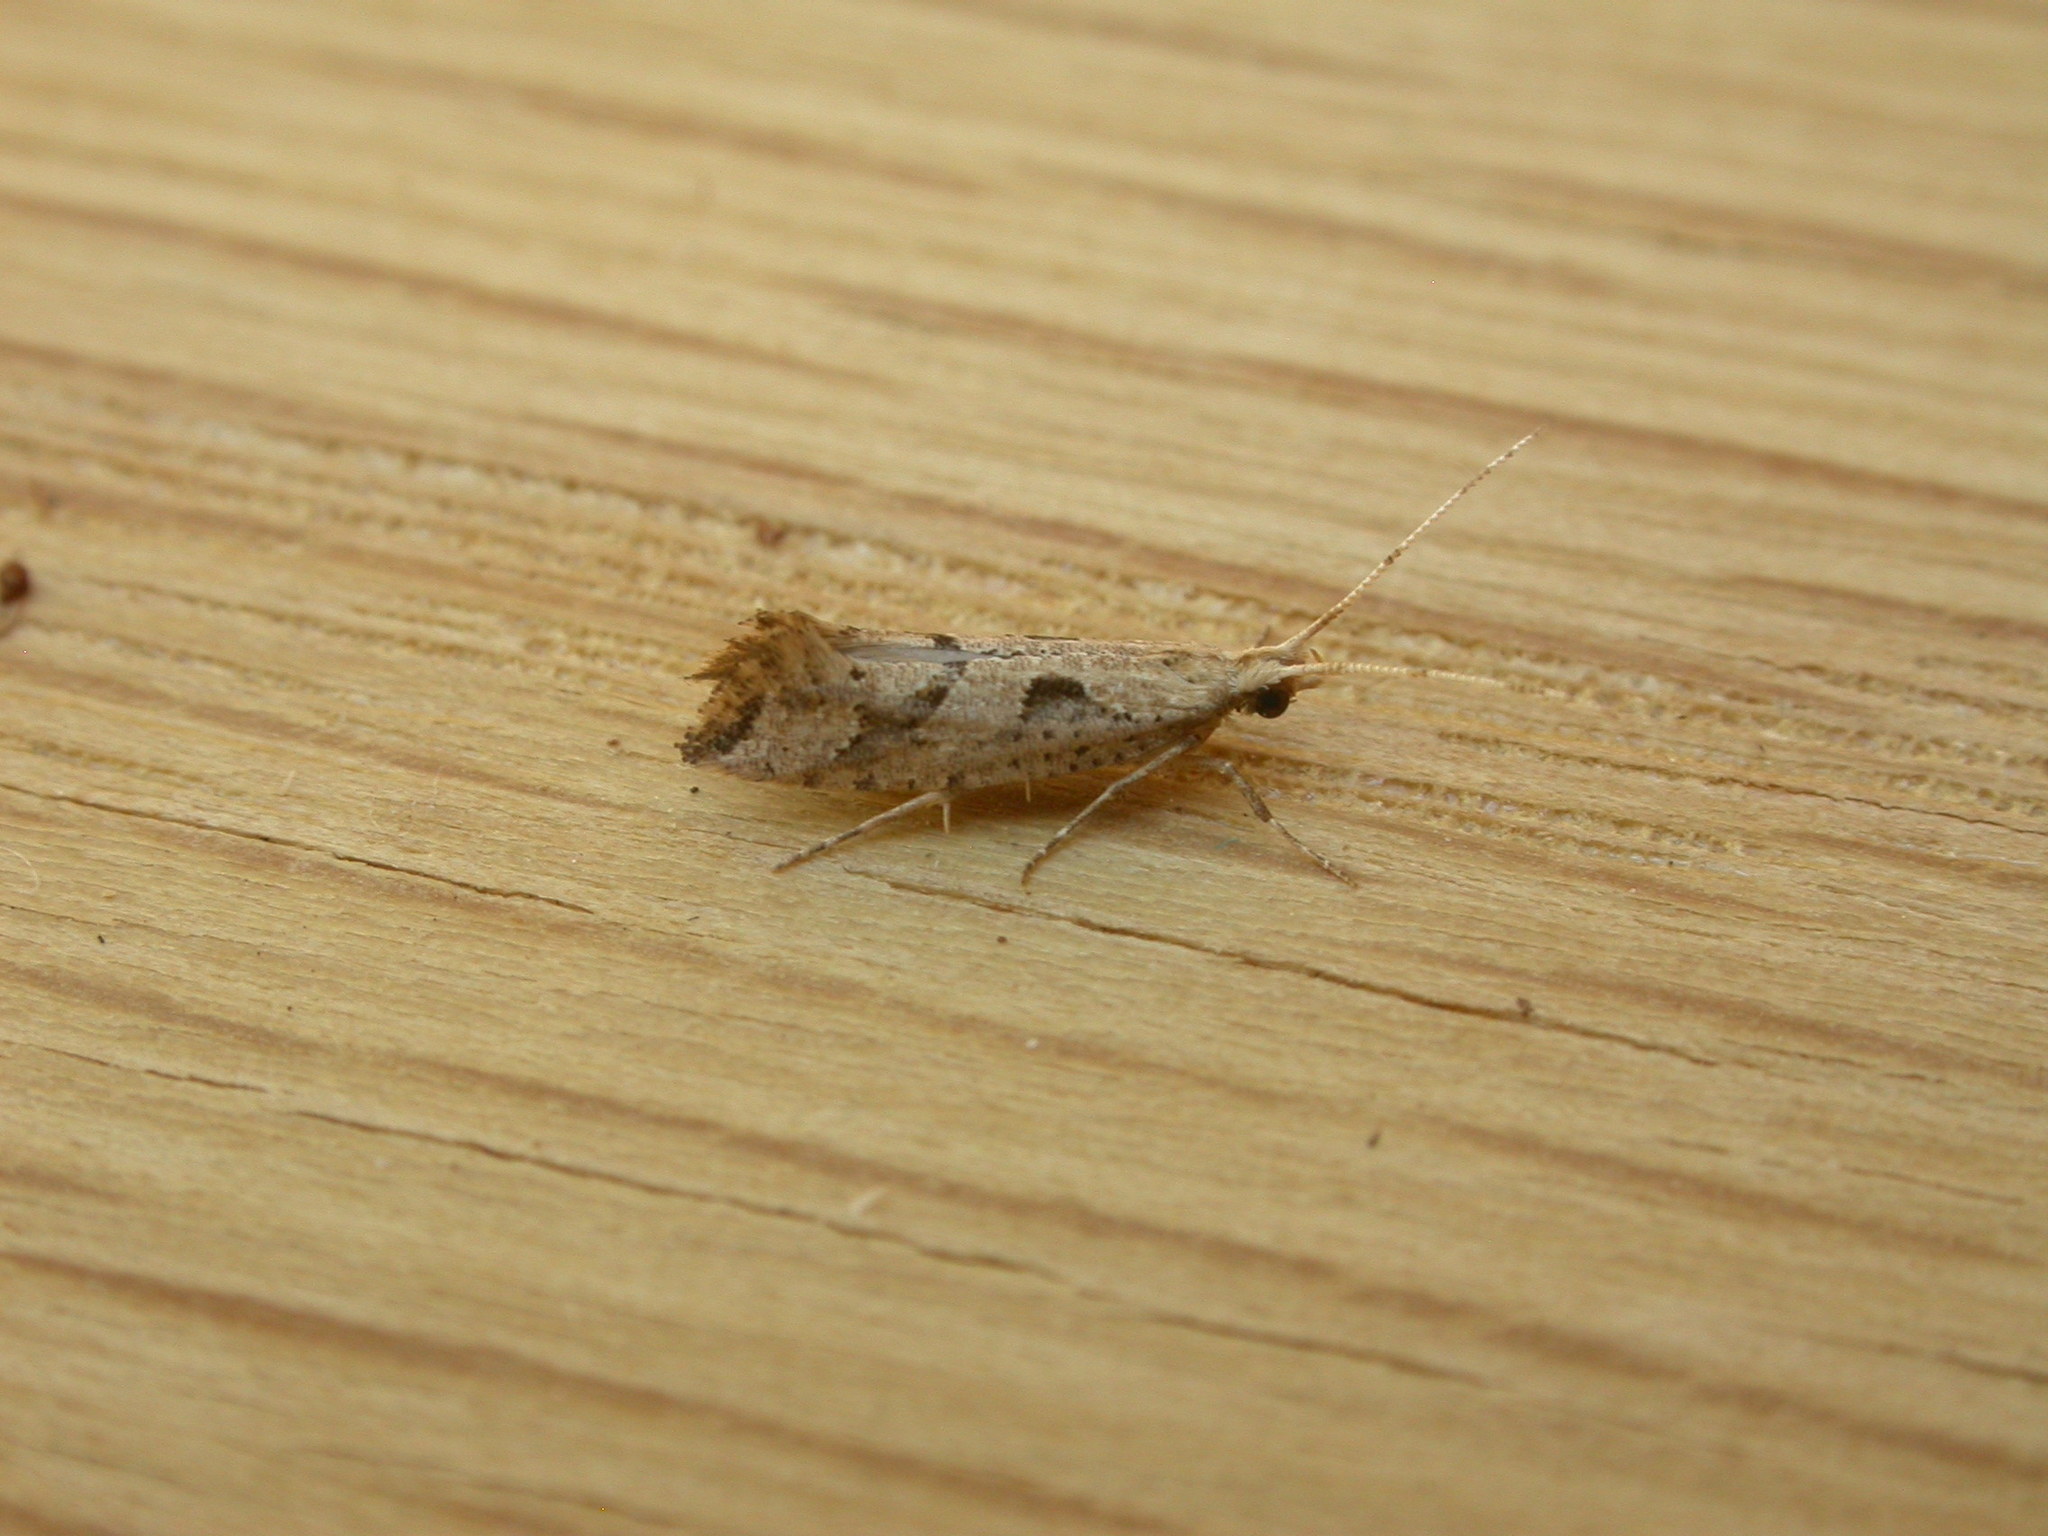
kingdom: Animalia
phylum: Arthropoda
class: Insecta
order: Lepidoptera
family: Plutellidae
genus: Leuroperna
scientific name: Leuroperna sera
